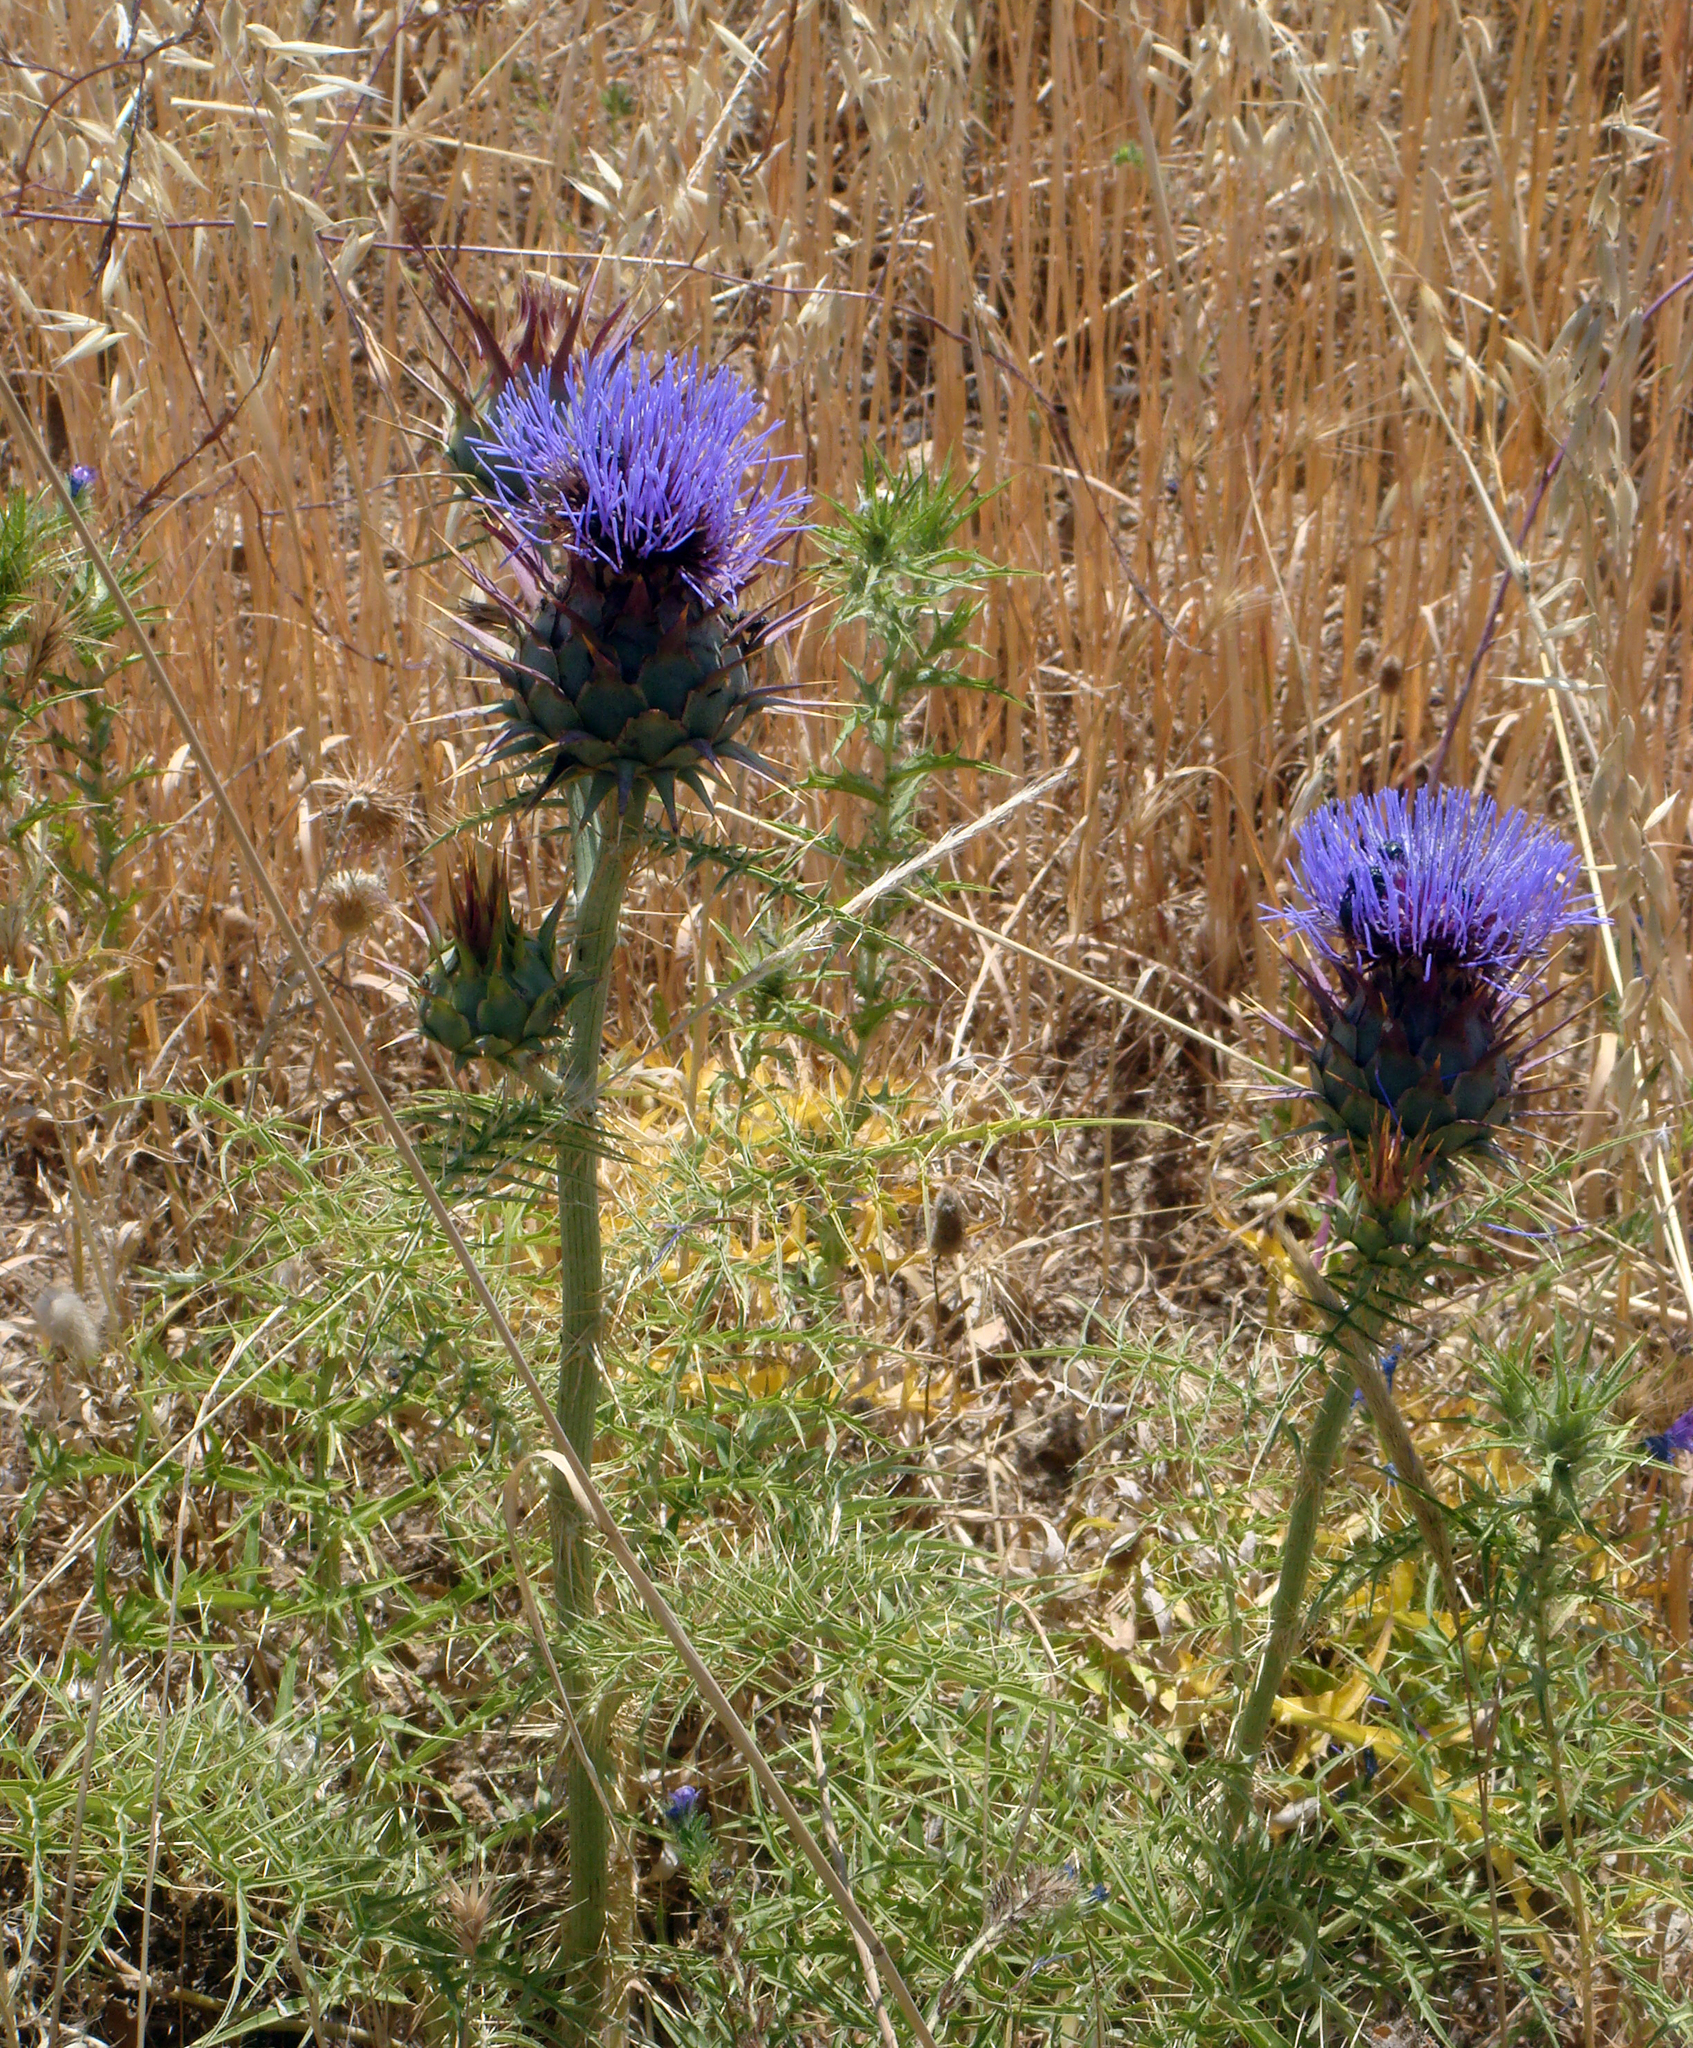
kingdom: Plantae
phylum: Tracheophyta
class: Magnoliopsida
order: Asterales
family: Asteraceae
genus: Cynara
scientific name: Cynara cardunculus
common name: Globe artichoke
